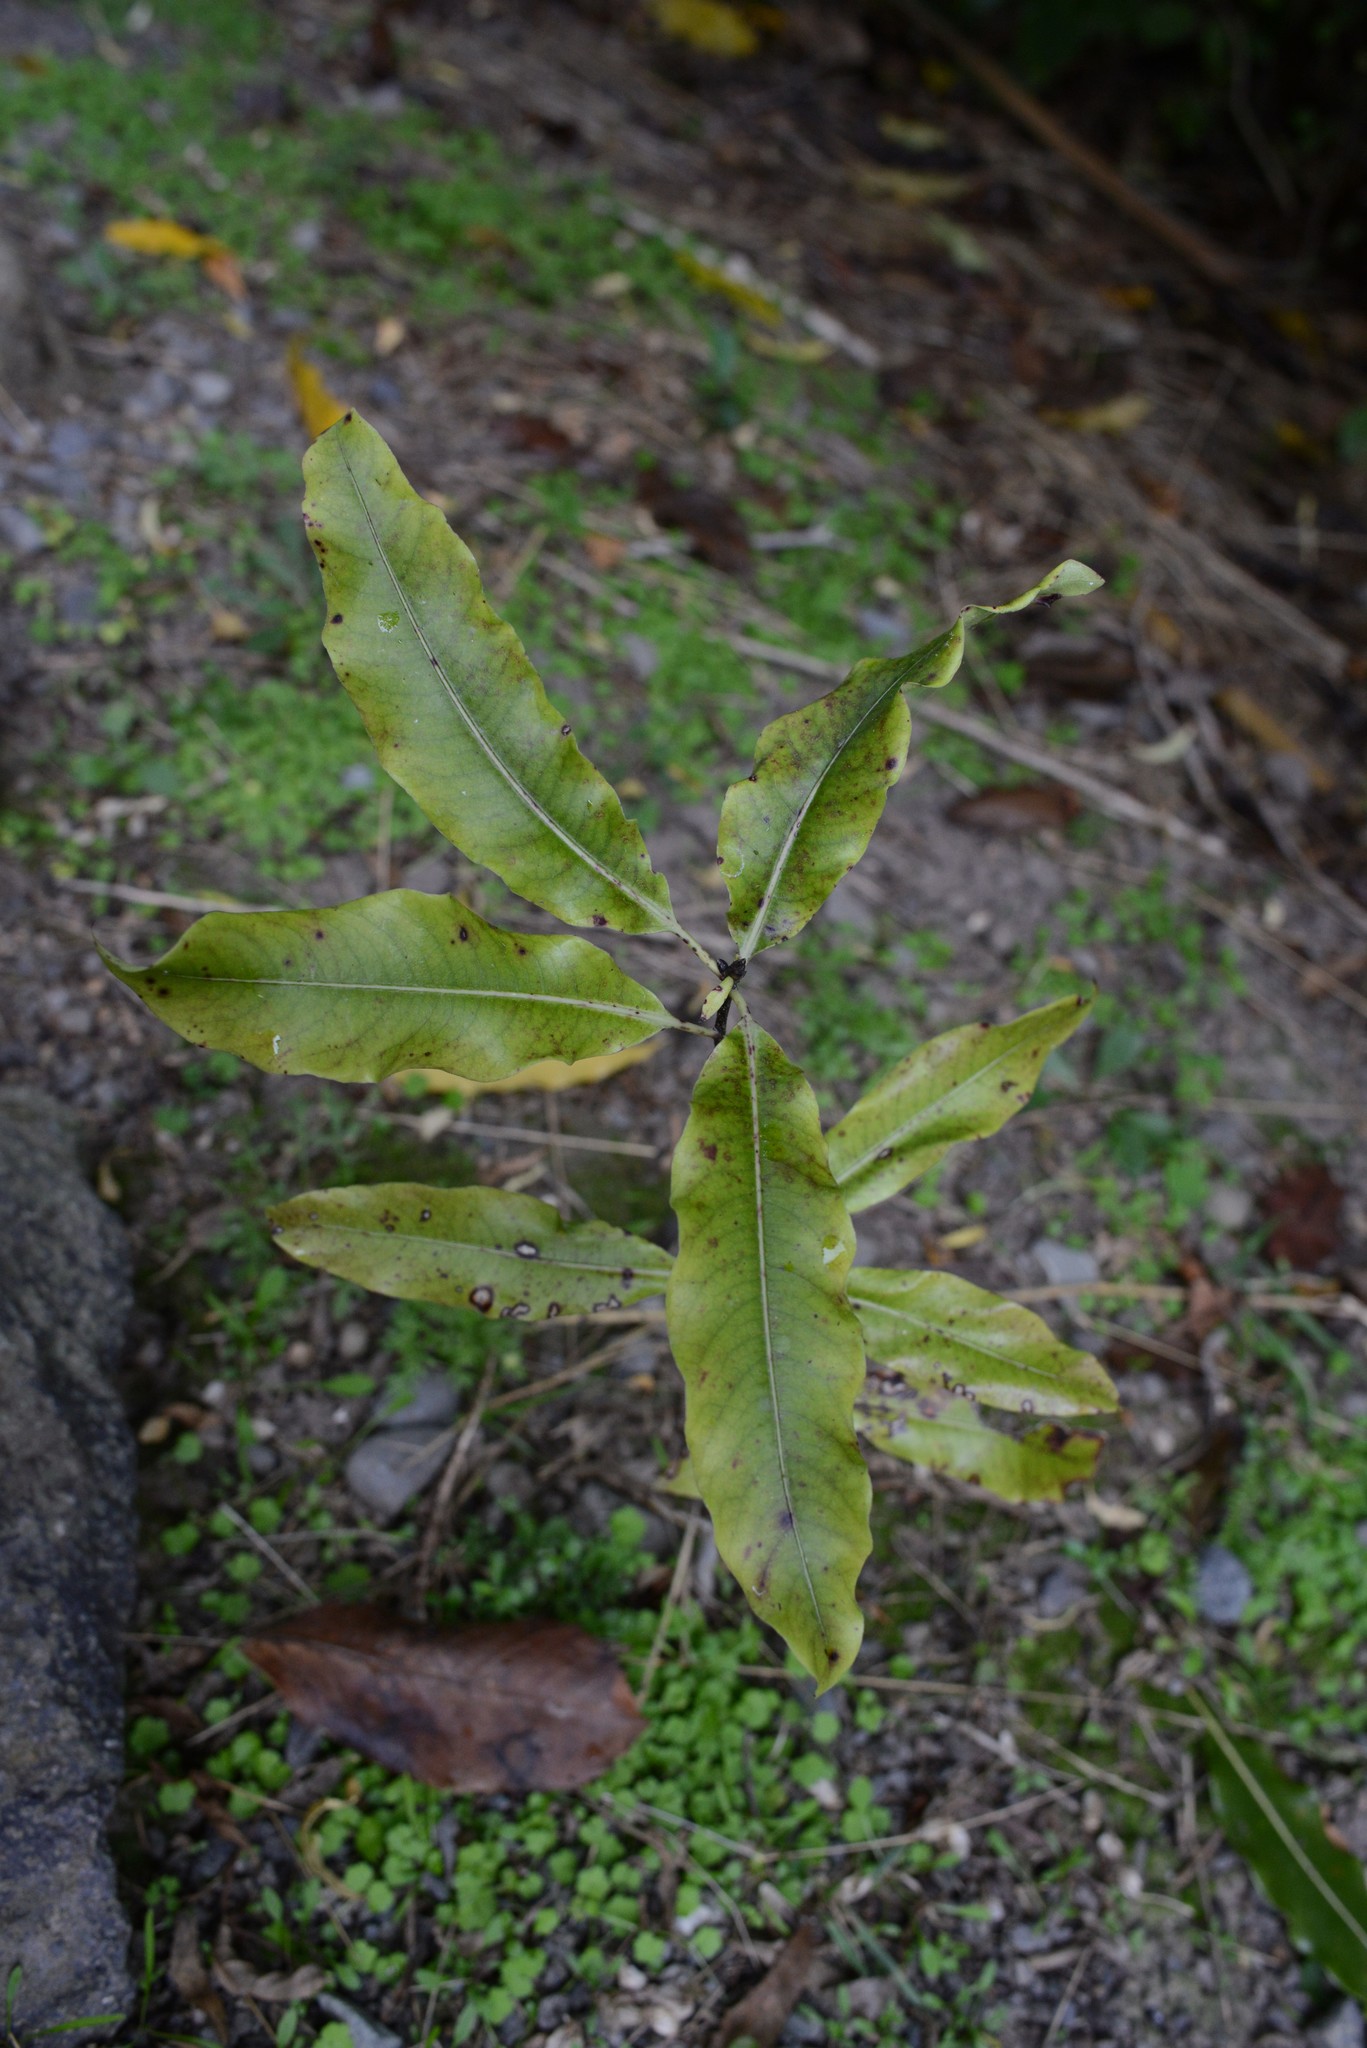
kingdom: Plantae
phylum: Tracheophyta
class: Magnoliopsida
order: Apiales
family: Pittosporaceae
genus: Pittosporum
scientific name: Pittosporum eugenioides
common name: Lemonwood
